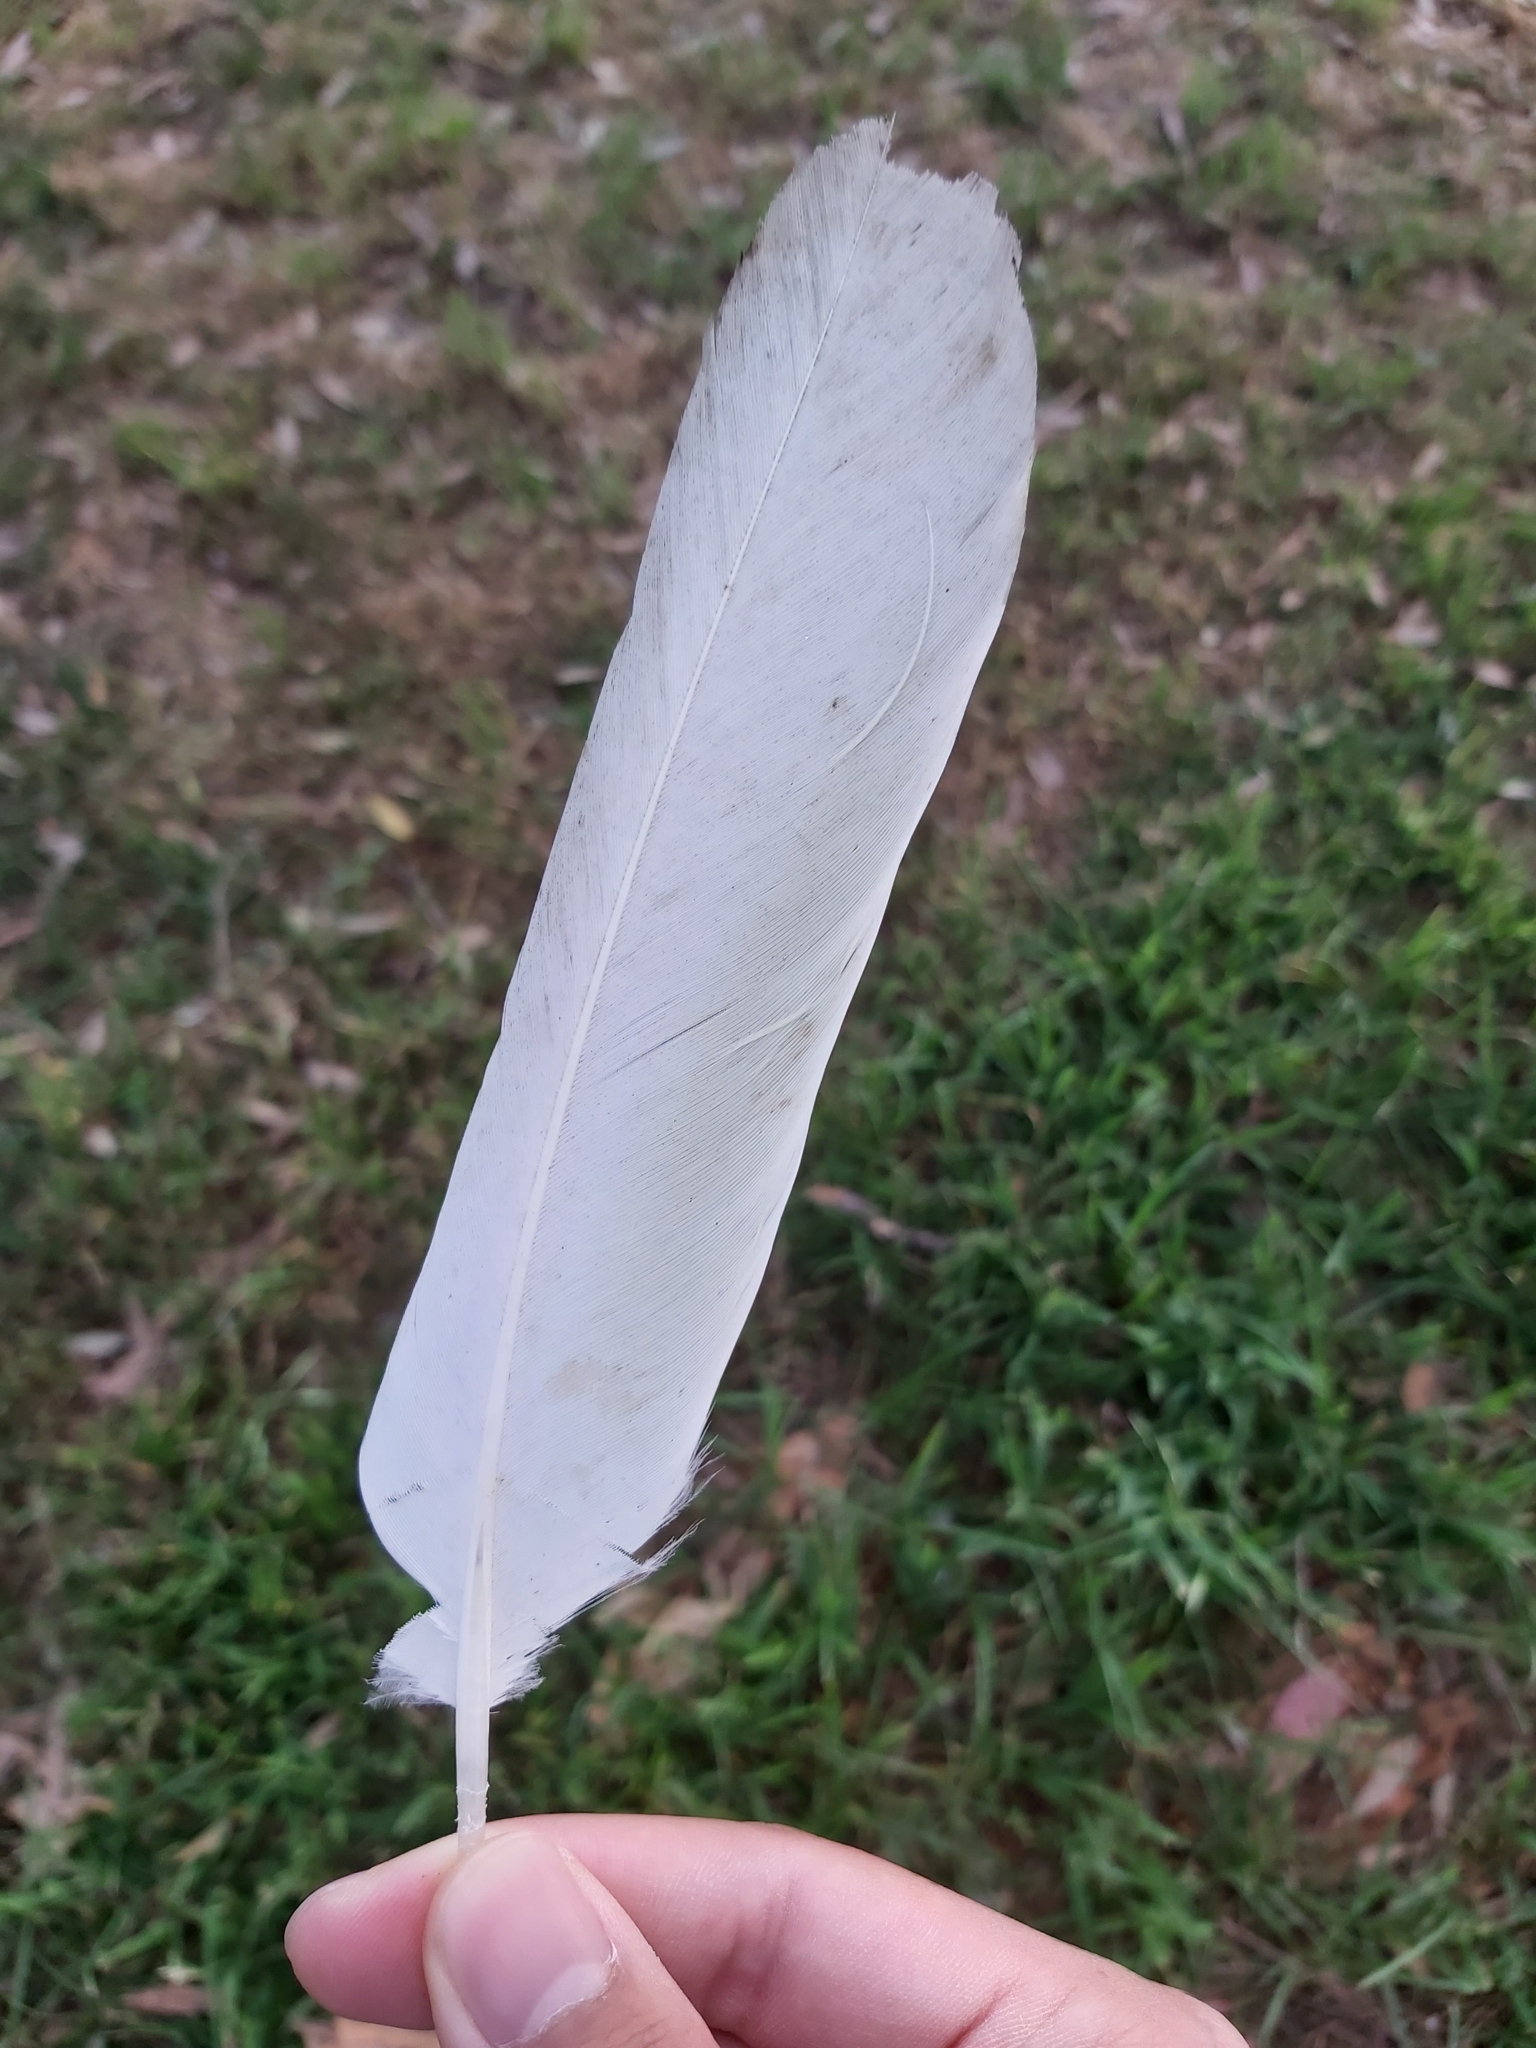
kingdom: Animalia
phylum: Chordata
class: Aves
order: Psittaciformes
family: Psittacidae
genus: Cacatua
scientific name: Cacatua galerita
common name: Sulphur-crested cockatoo
